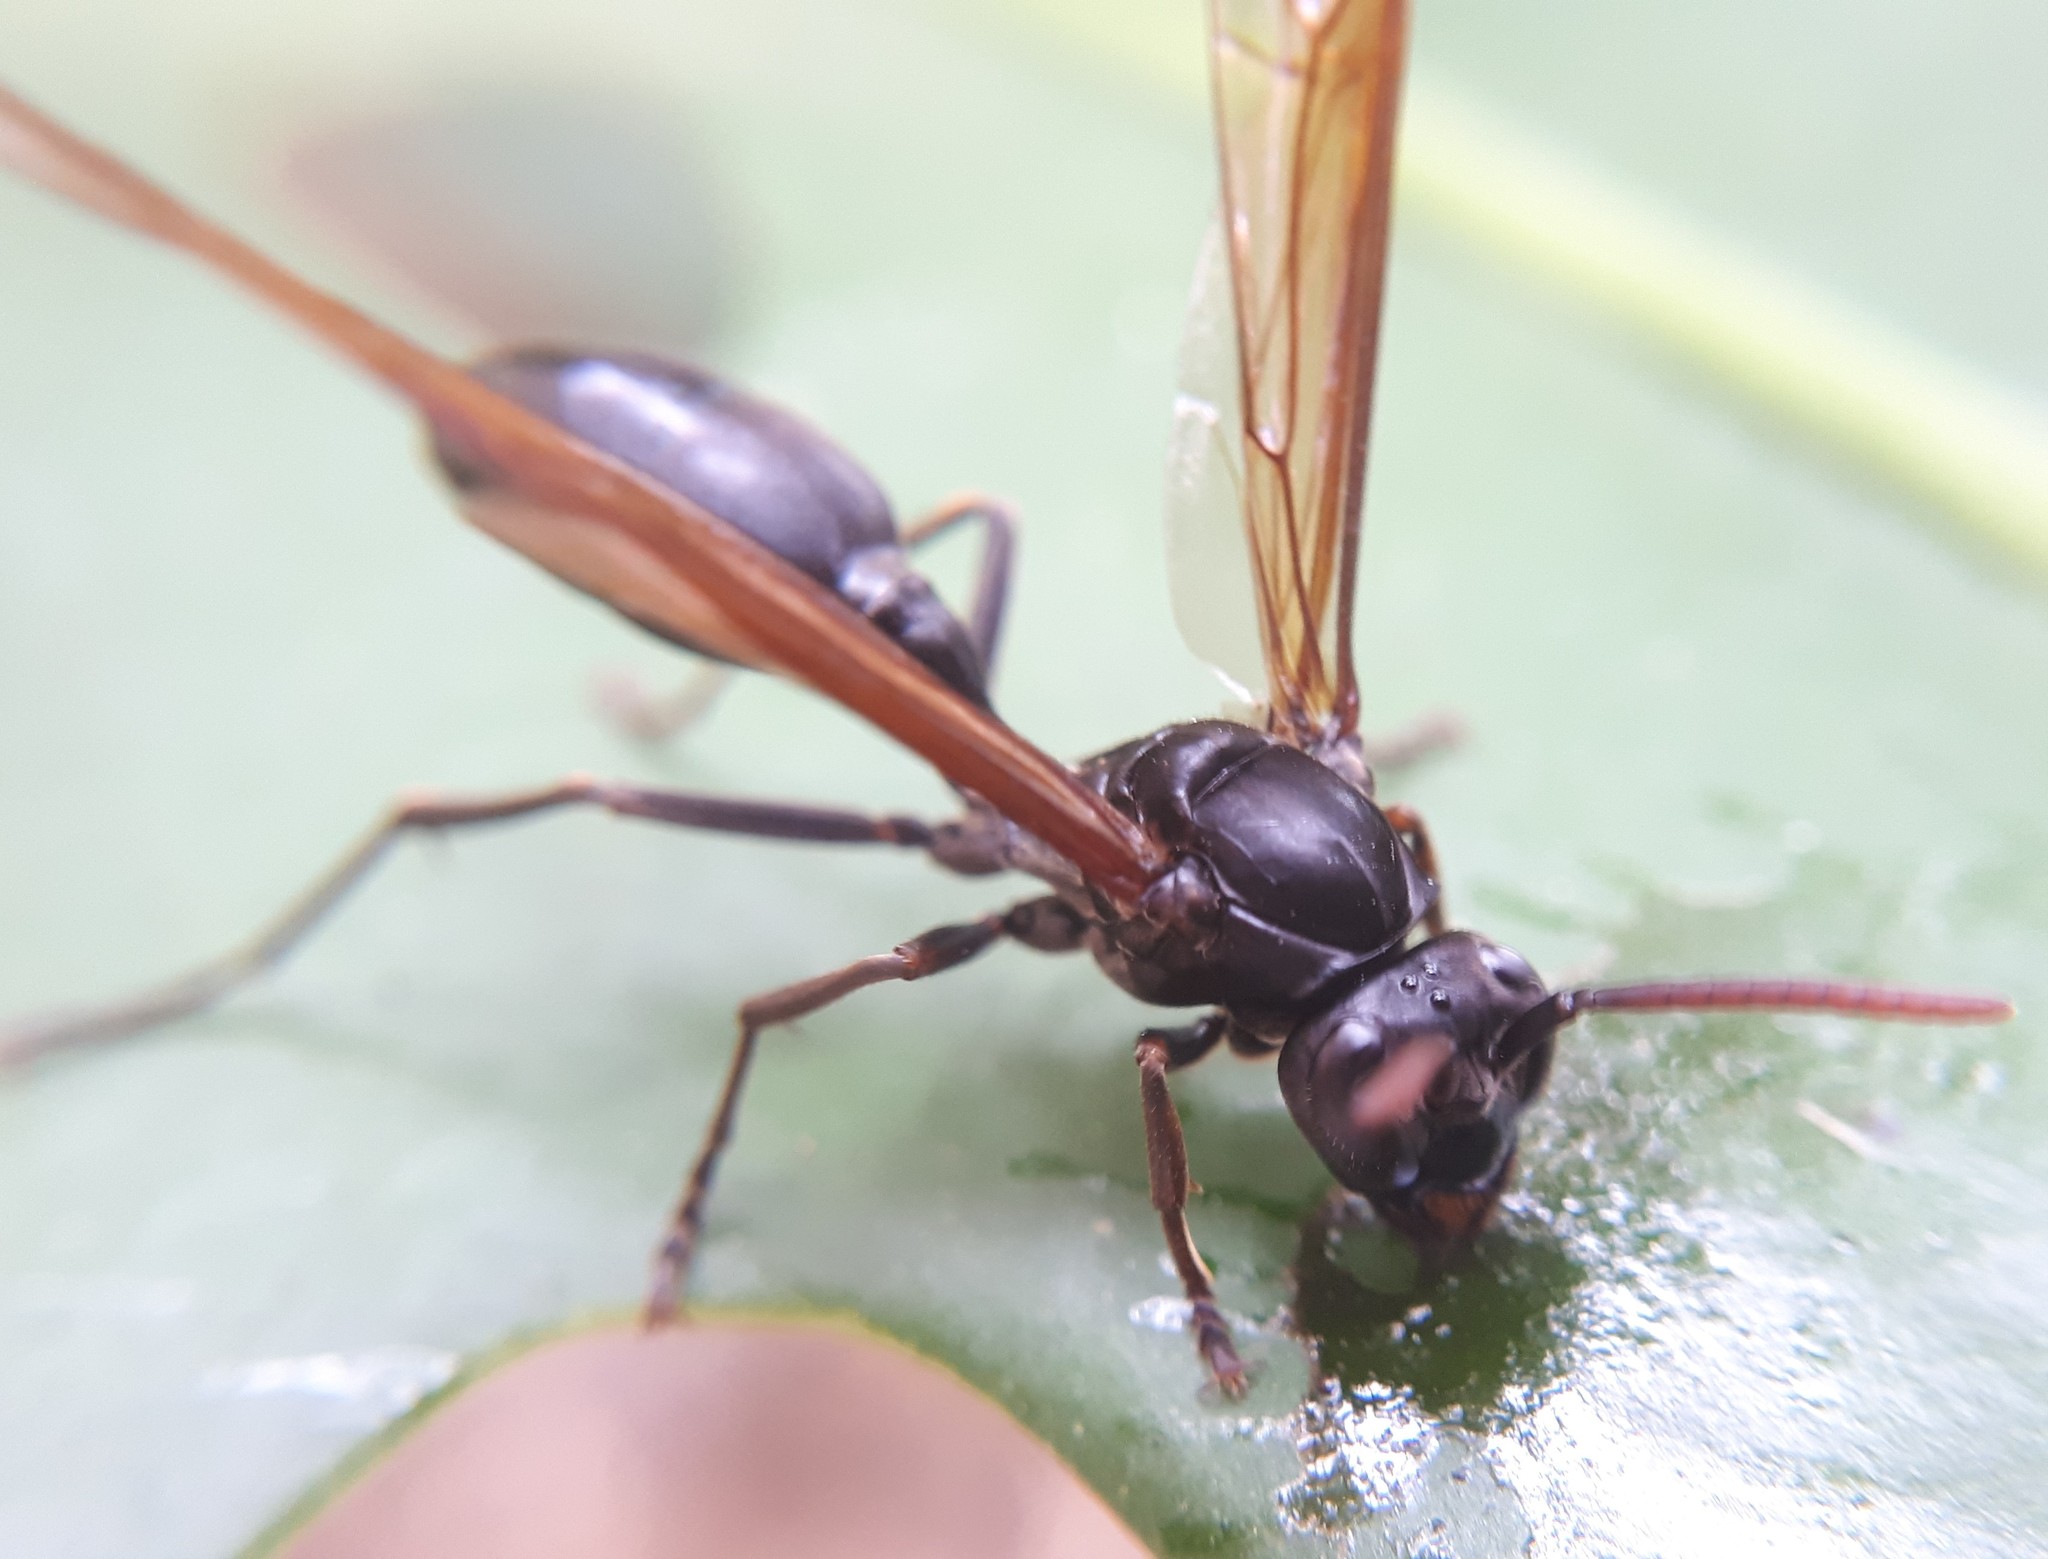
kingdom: Animalia
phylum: Arthropoda
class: Insecta
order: Hymenoptera
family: Vespidae
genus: Agelaia
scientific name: Agelaia angulata
